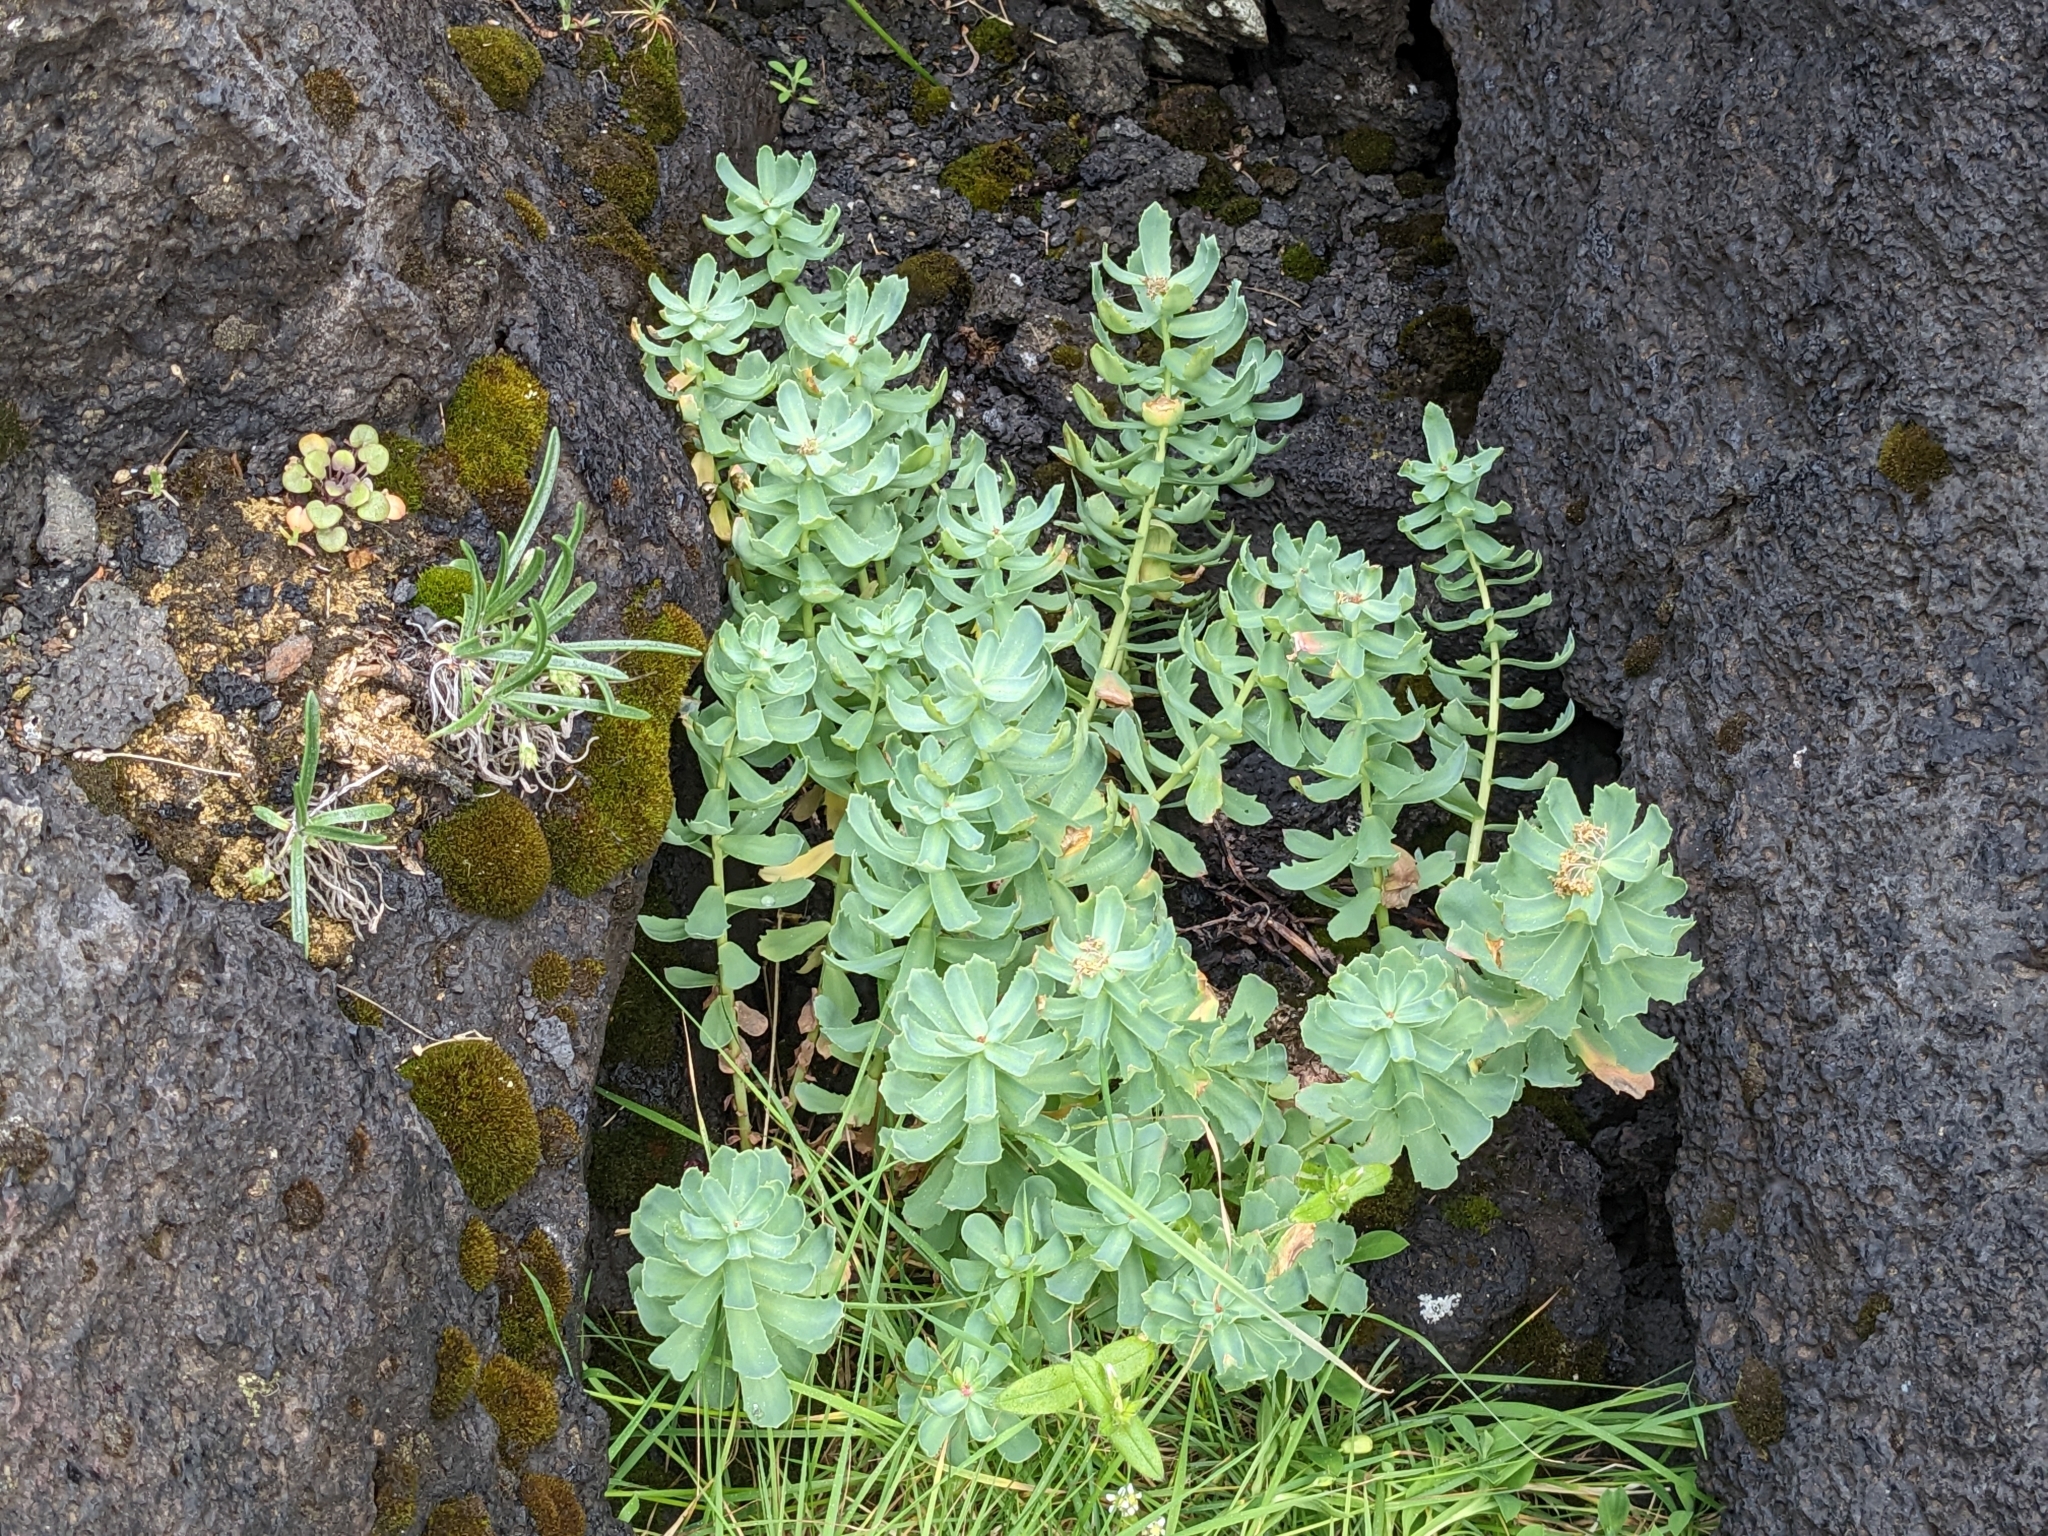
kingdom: Plantae
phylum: Tracheophyta
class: Magnoliopsida
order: Saxifragales
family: Crassulaceae
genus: Rhodiola
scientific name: Rhodiola rosea
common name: Roseroot
